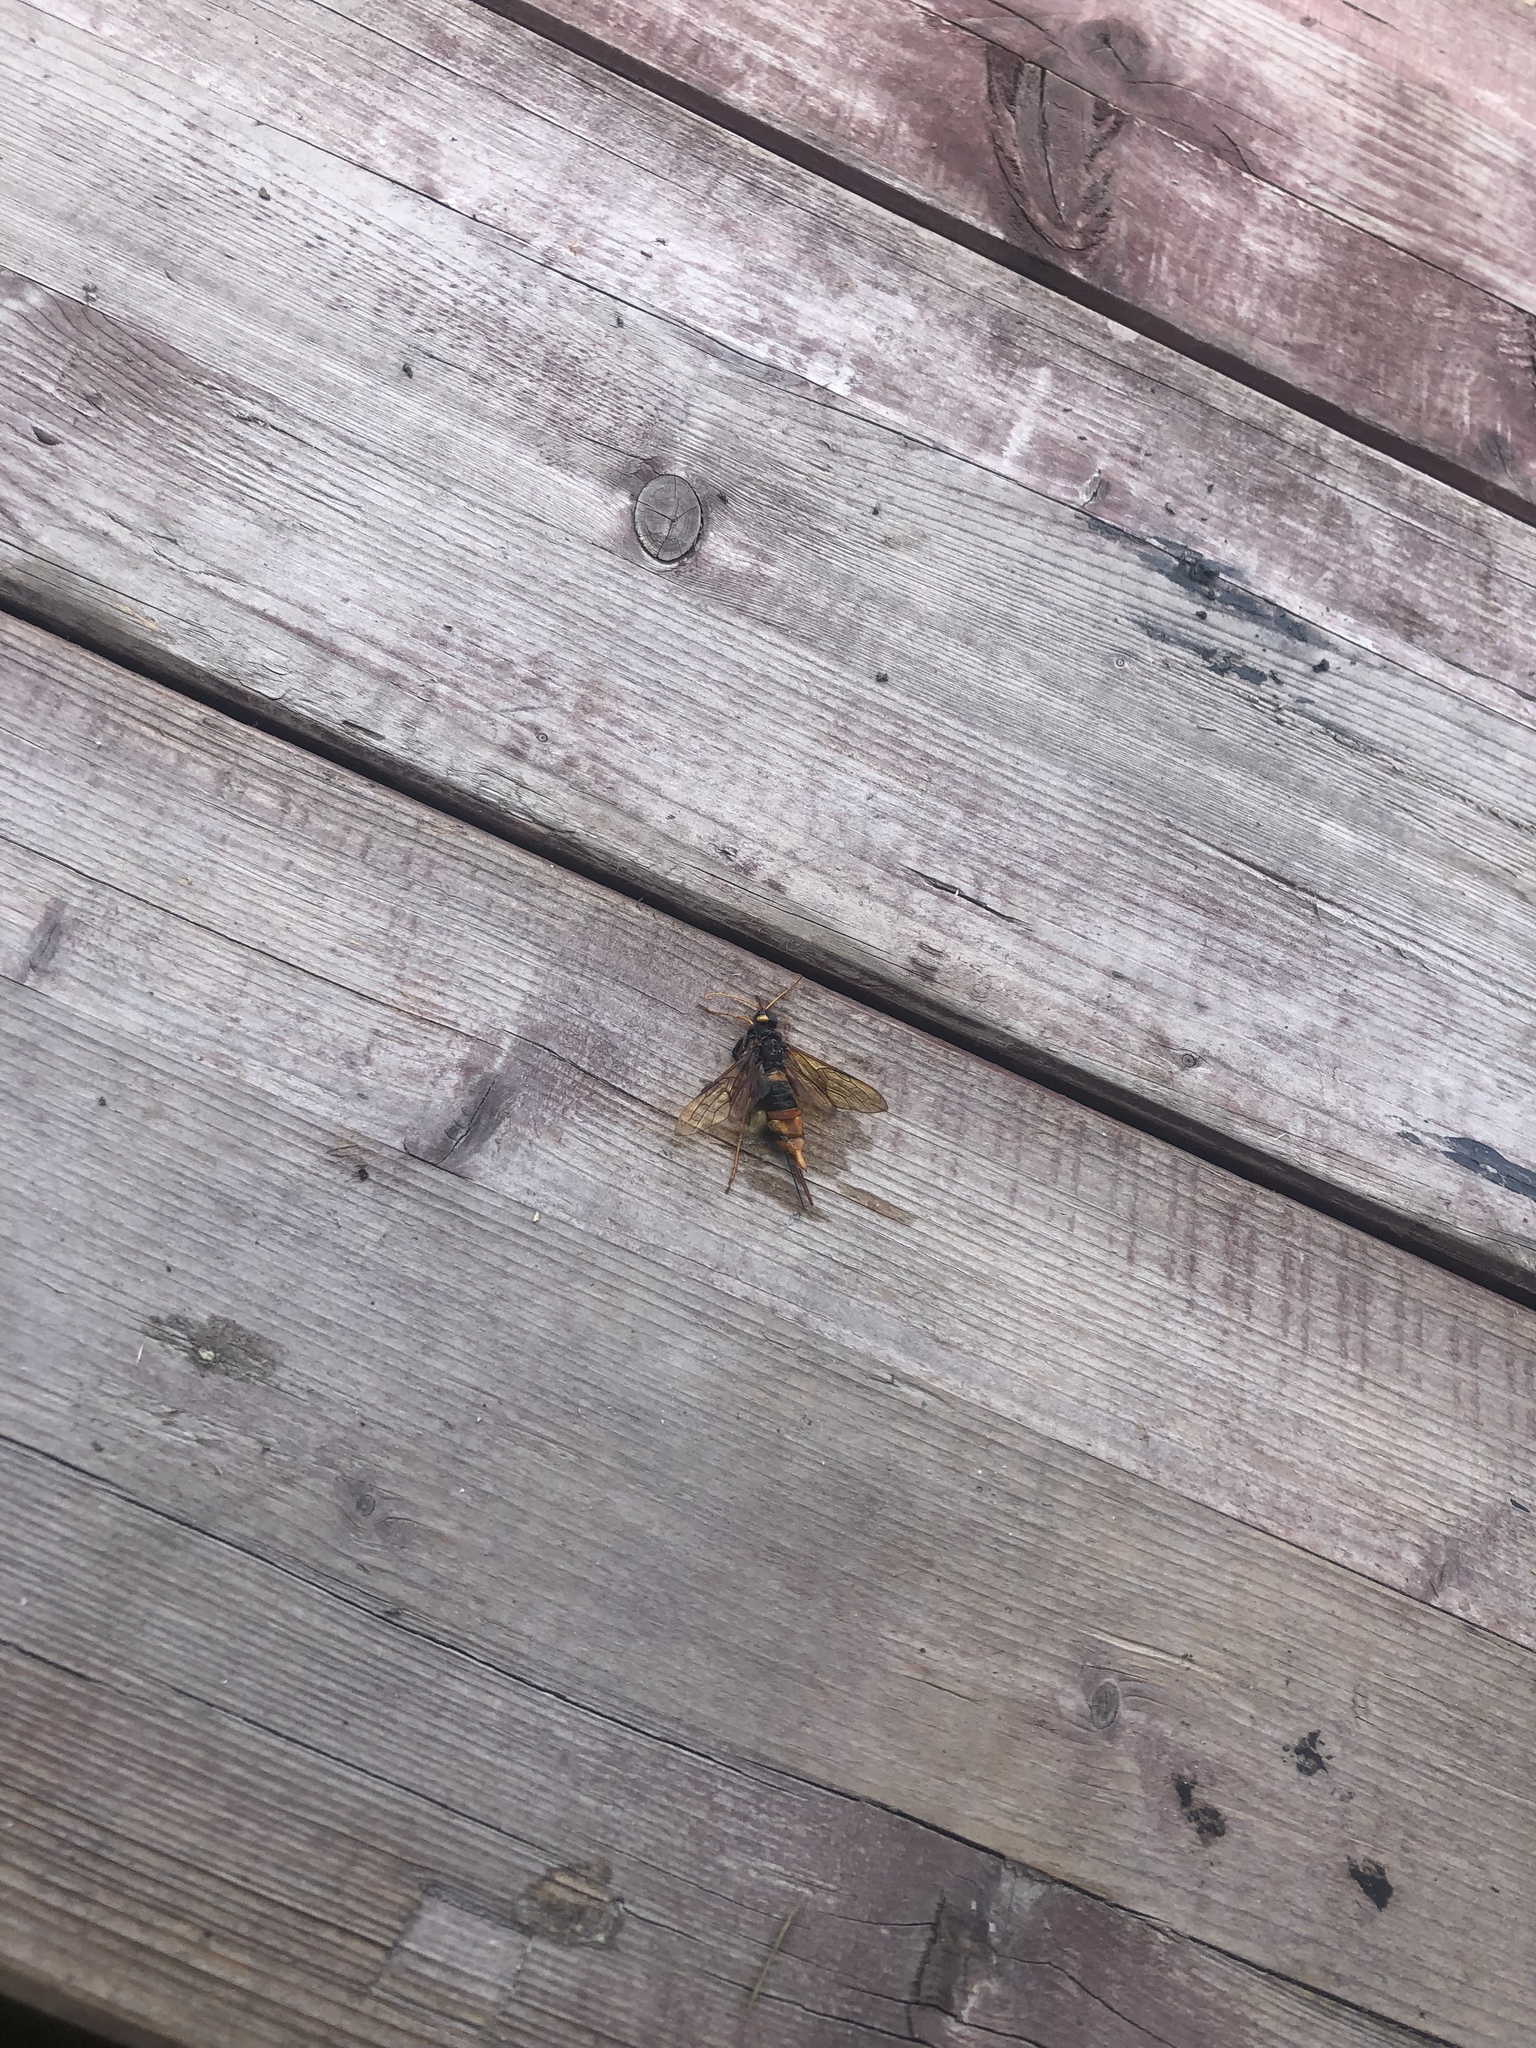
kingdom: Animalia
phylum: Arthropoda
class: Insecta
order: Hymenoptera
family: Siricidae
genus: Urocerus
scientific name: Urocerus gigas
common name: Giant woodwasp
